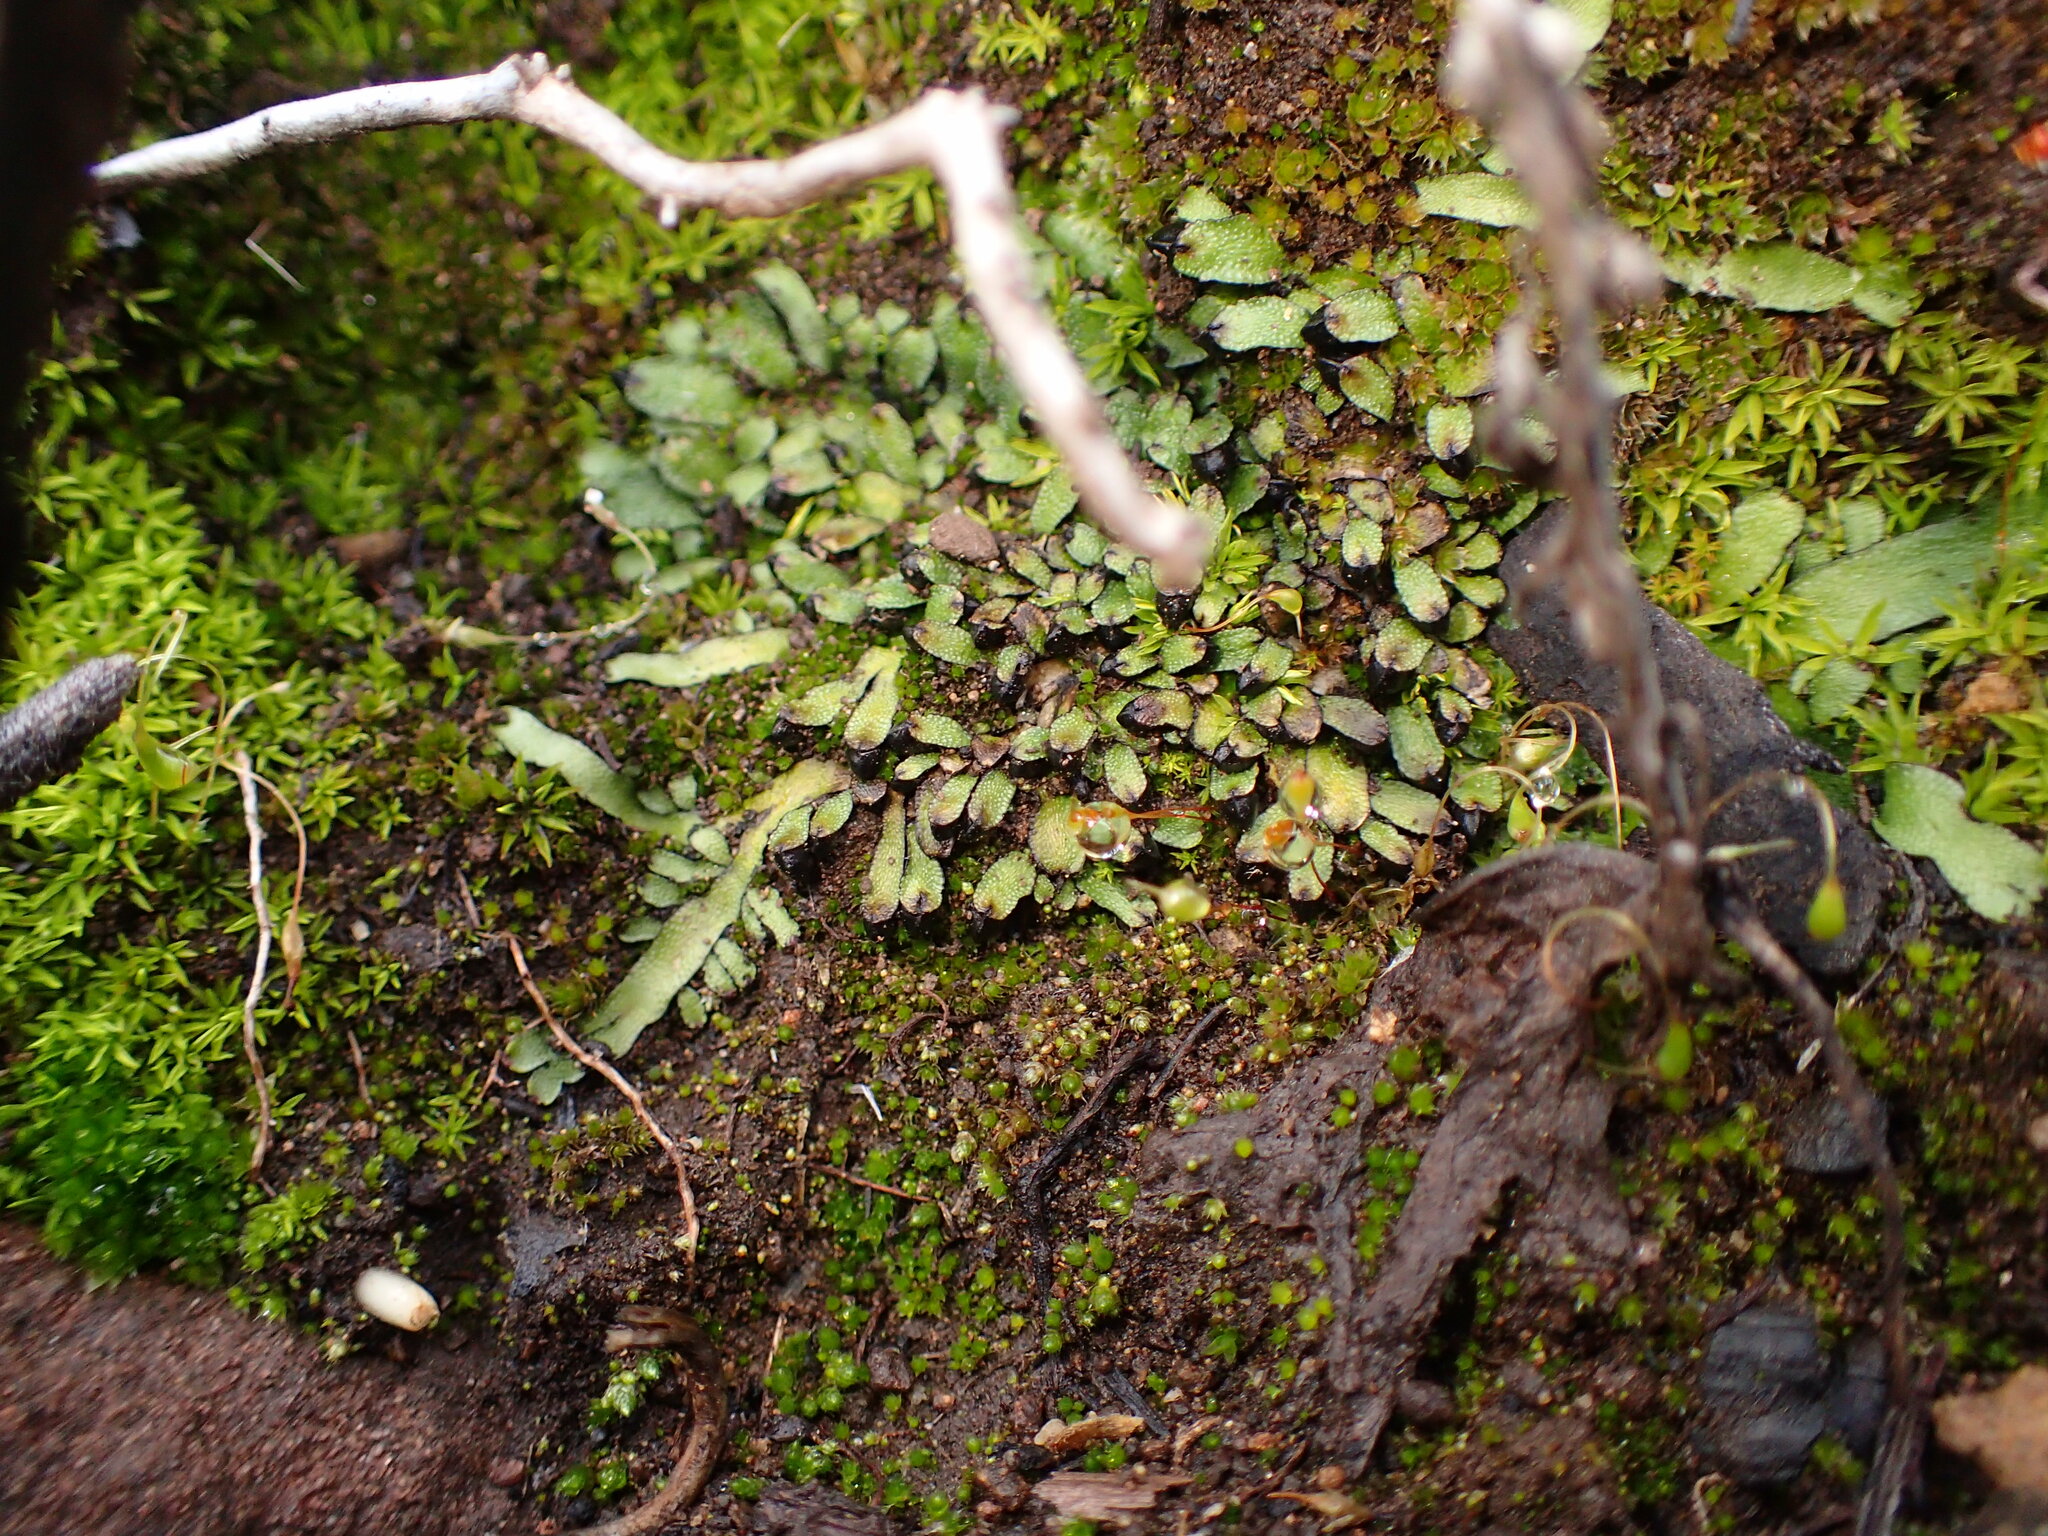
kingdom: Plantae
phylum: Marchantiophyta
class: Marchantiopsida
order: Marchantiales
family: Targioniaceae
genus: Targionia
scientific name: Targionia hypophylla
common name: Orobus-seed liverwort
